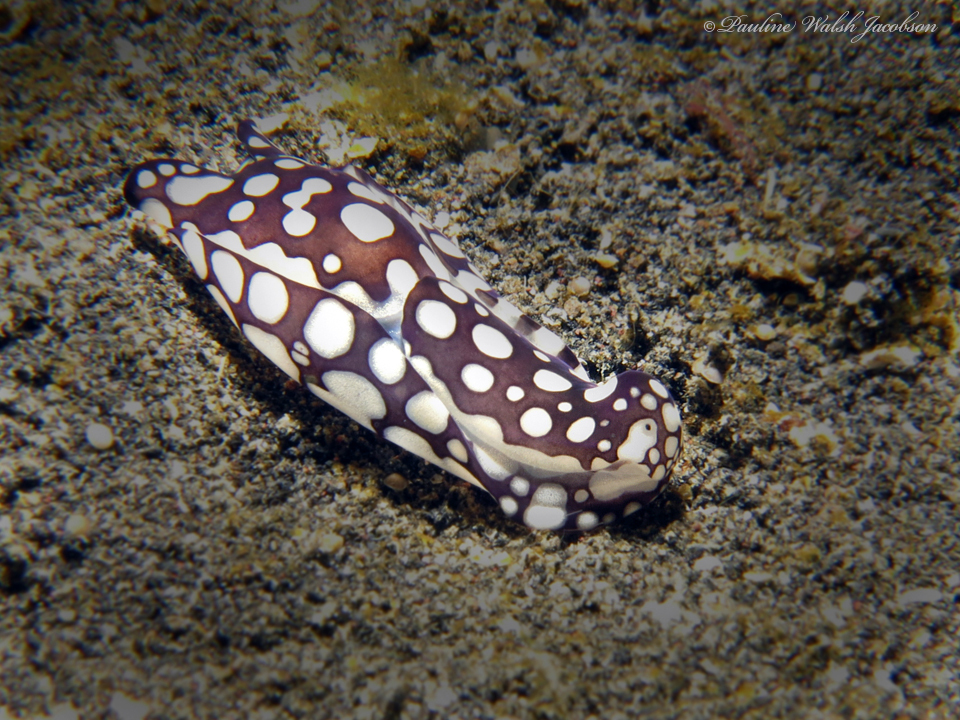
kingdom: Animalia
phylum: Mollusca
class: Gastropoda
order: Cephalaspidea
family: Aglajidae
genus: Tubulophilinopsis
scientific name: Tubulophilinopsis pilsbryi
